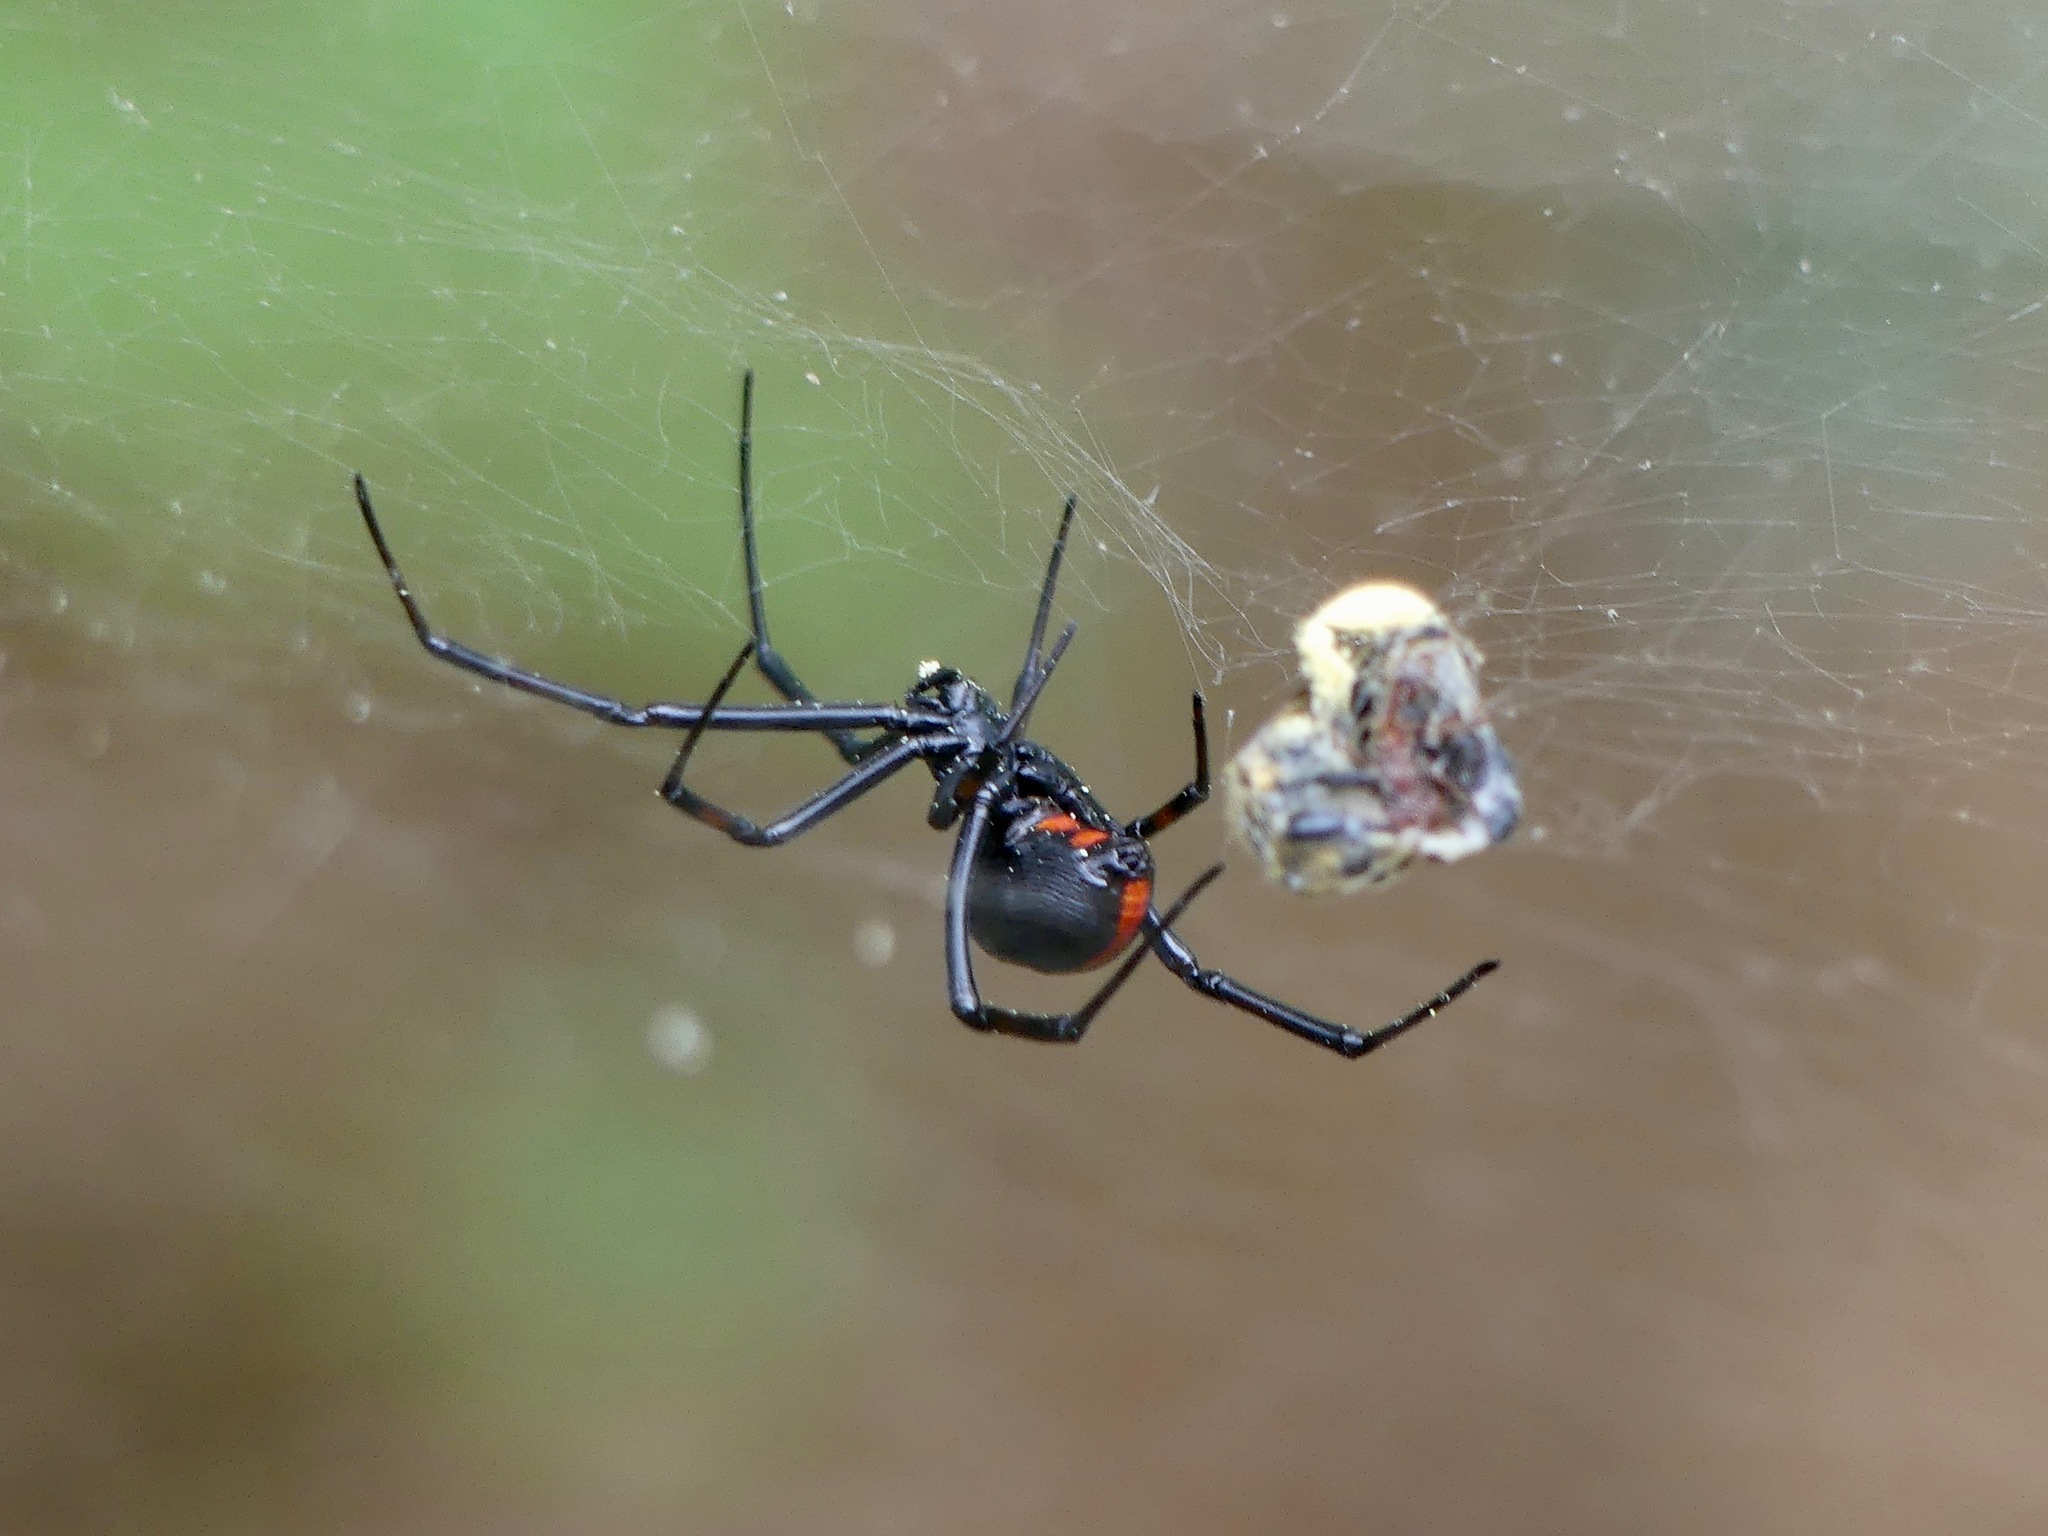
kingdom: Animalia
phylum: Arthropoda
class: Arachnida
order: Araneae
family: Theridiidae
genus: Latrodectus
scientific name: Latrodectus mactans
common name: Cobweb spiders
